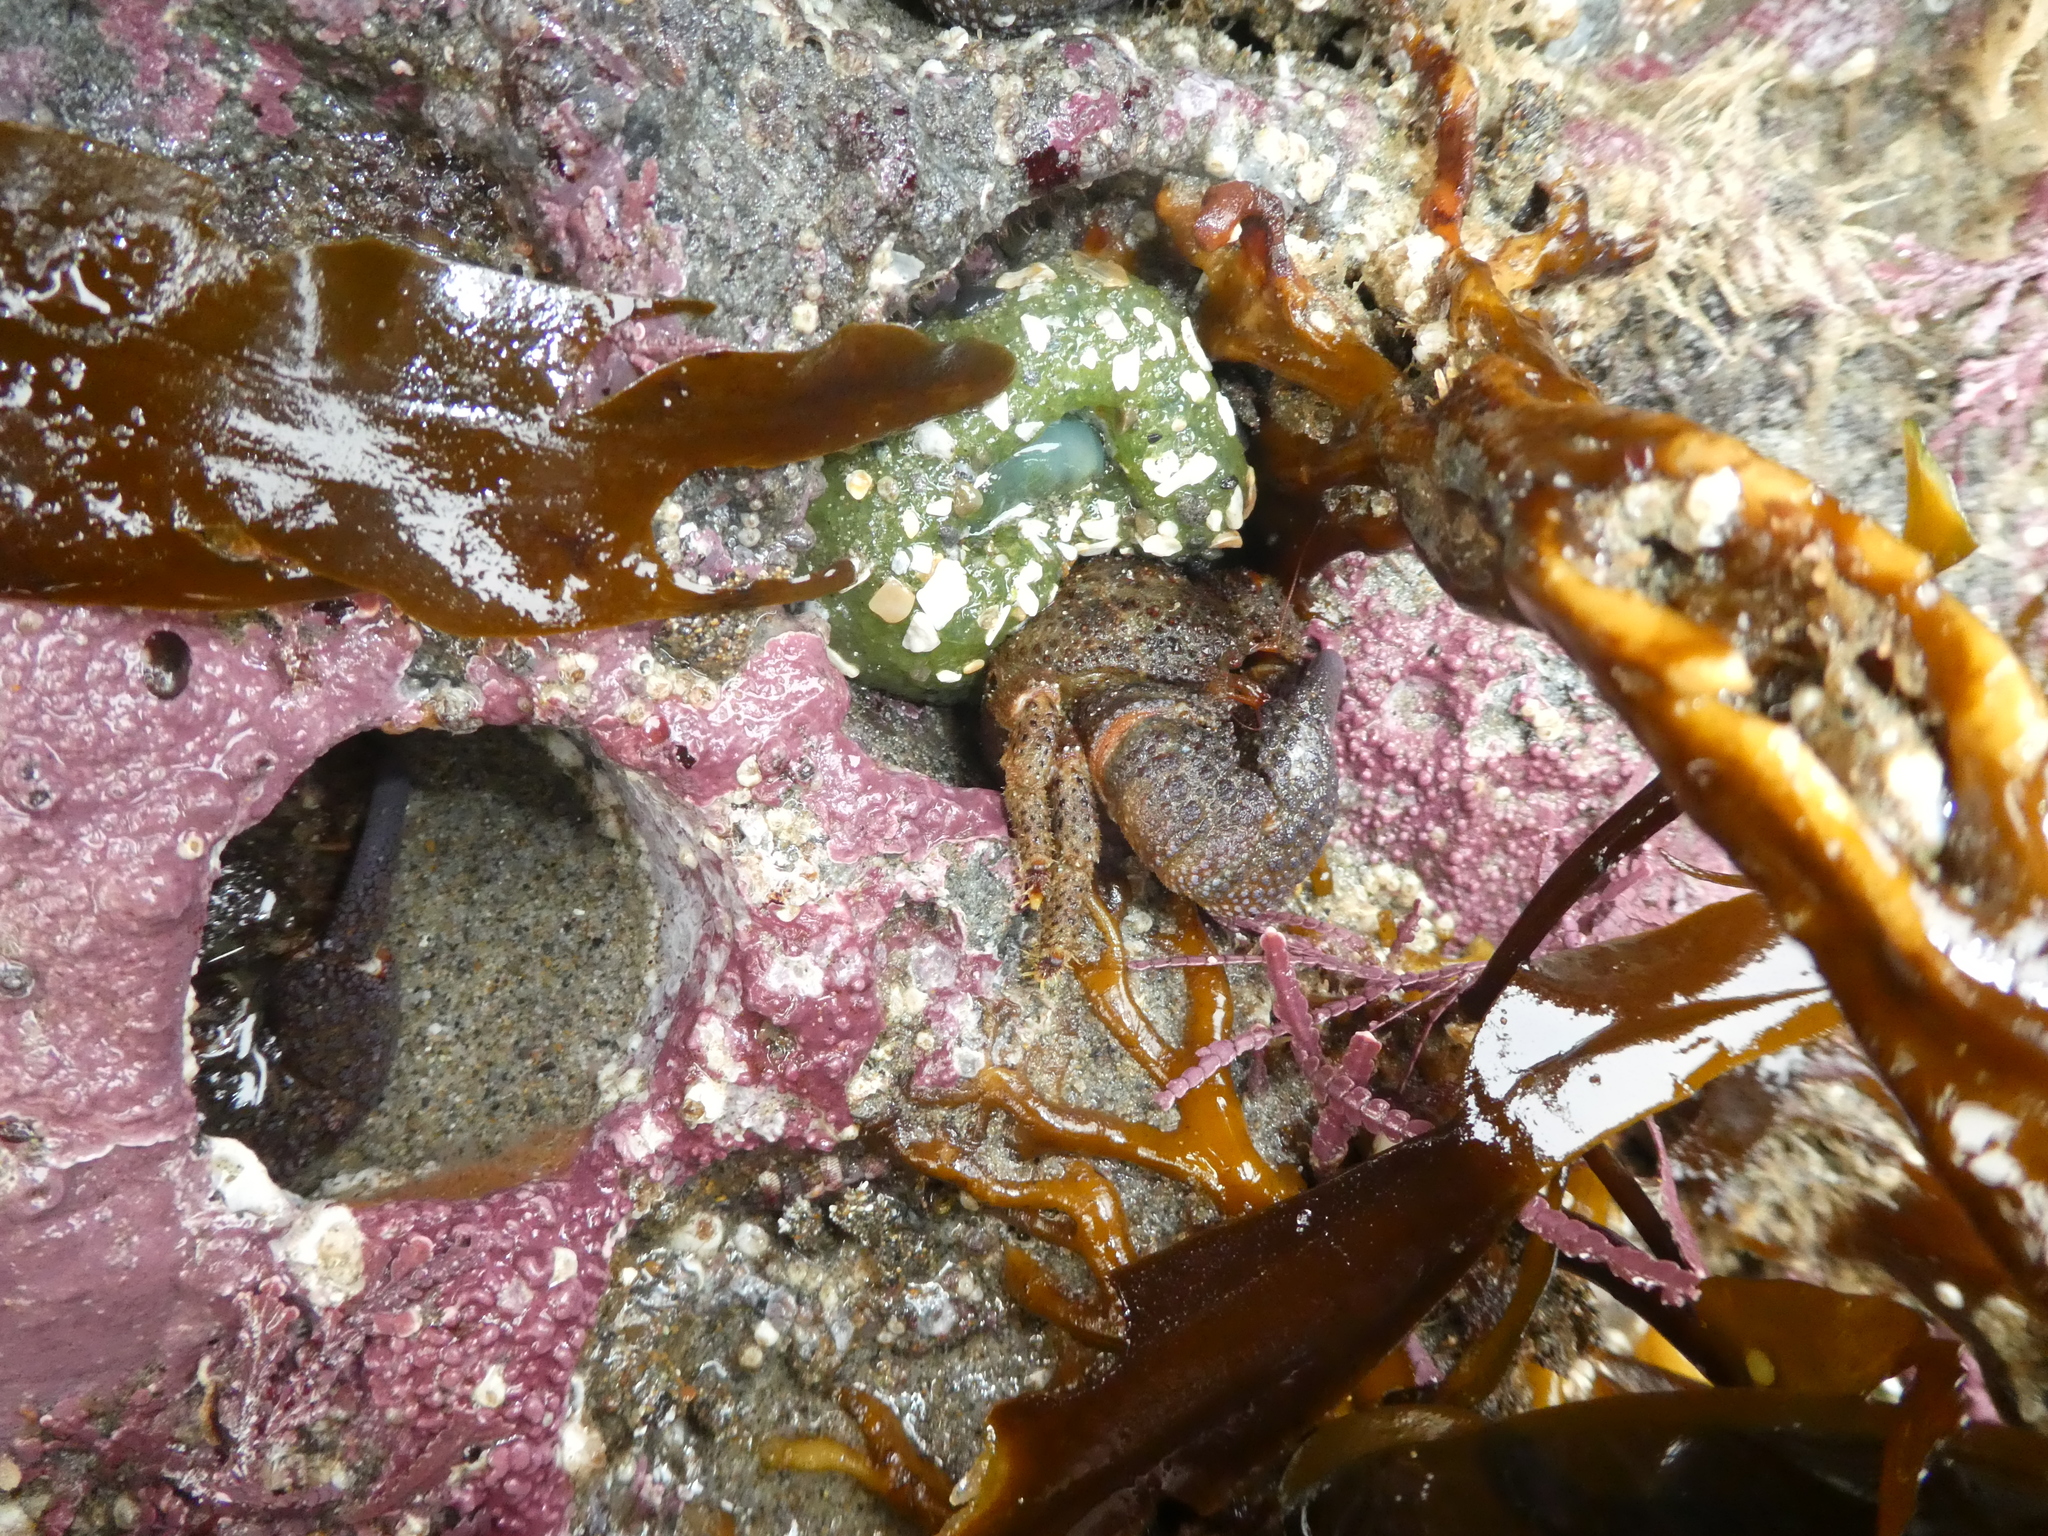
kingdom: Animalia
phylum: Arthropoda
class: Malacostraca
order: Decapoda
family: Hapalogastridae
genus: Oedignathus
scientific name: Oedignathus inermis
